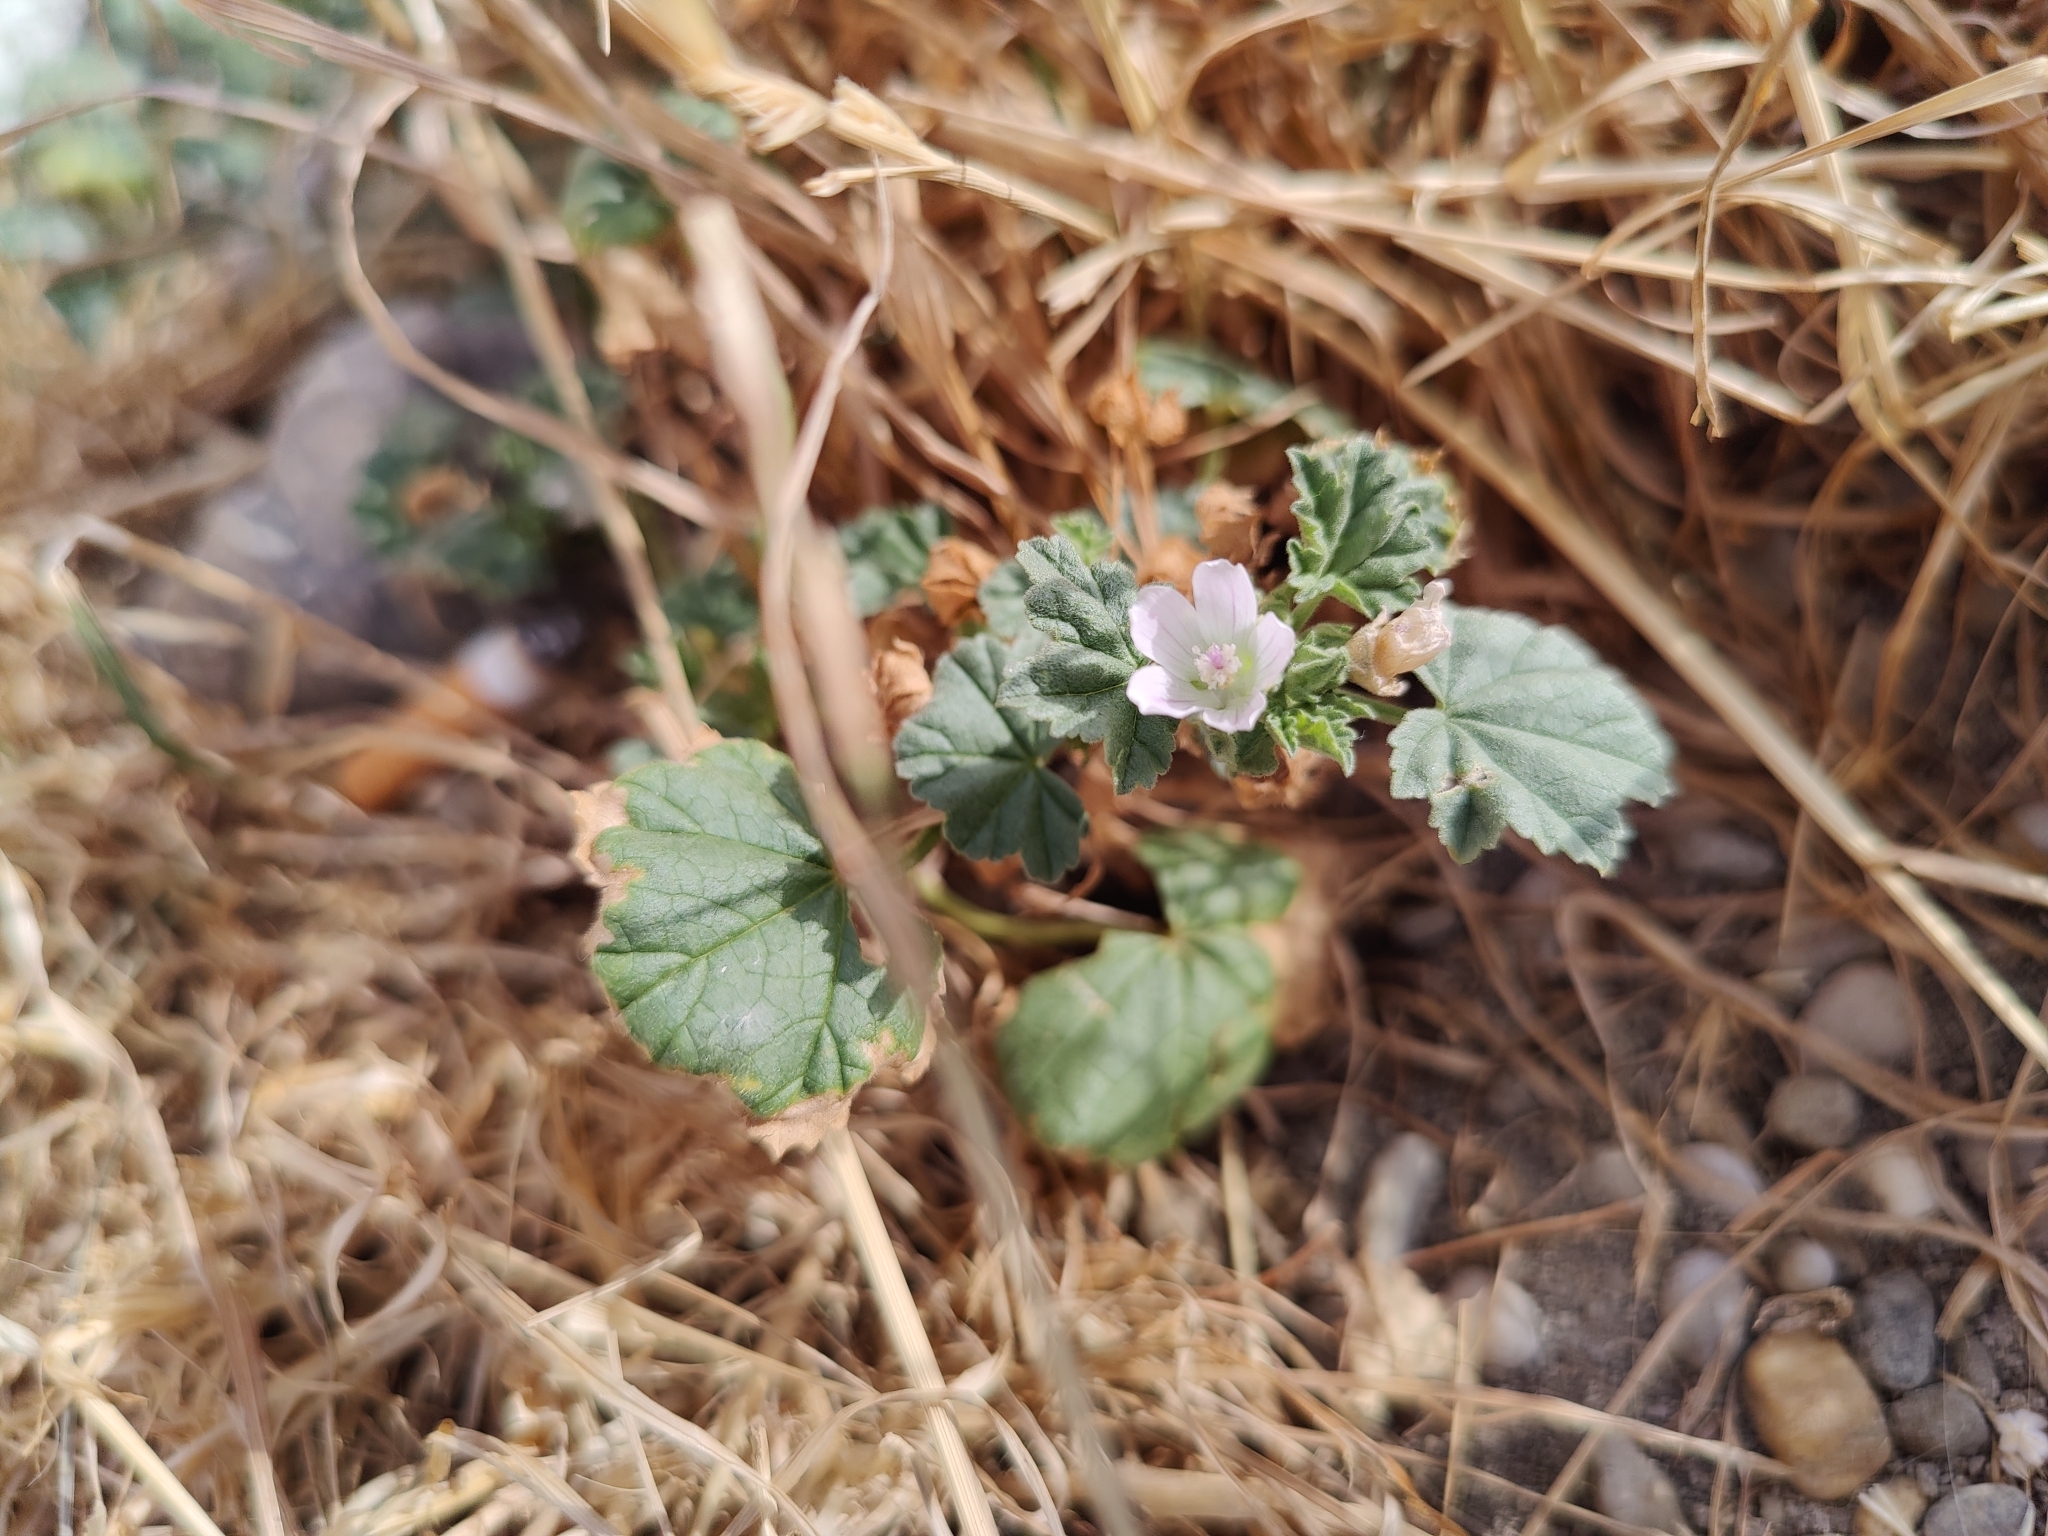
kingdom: Plantae
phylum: Tracheophyta
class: Magnoliopsida
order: Malvales
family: Malvaceae
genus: Malva
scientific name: Malva parviflora
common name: Least mallow
